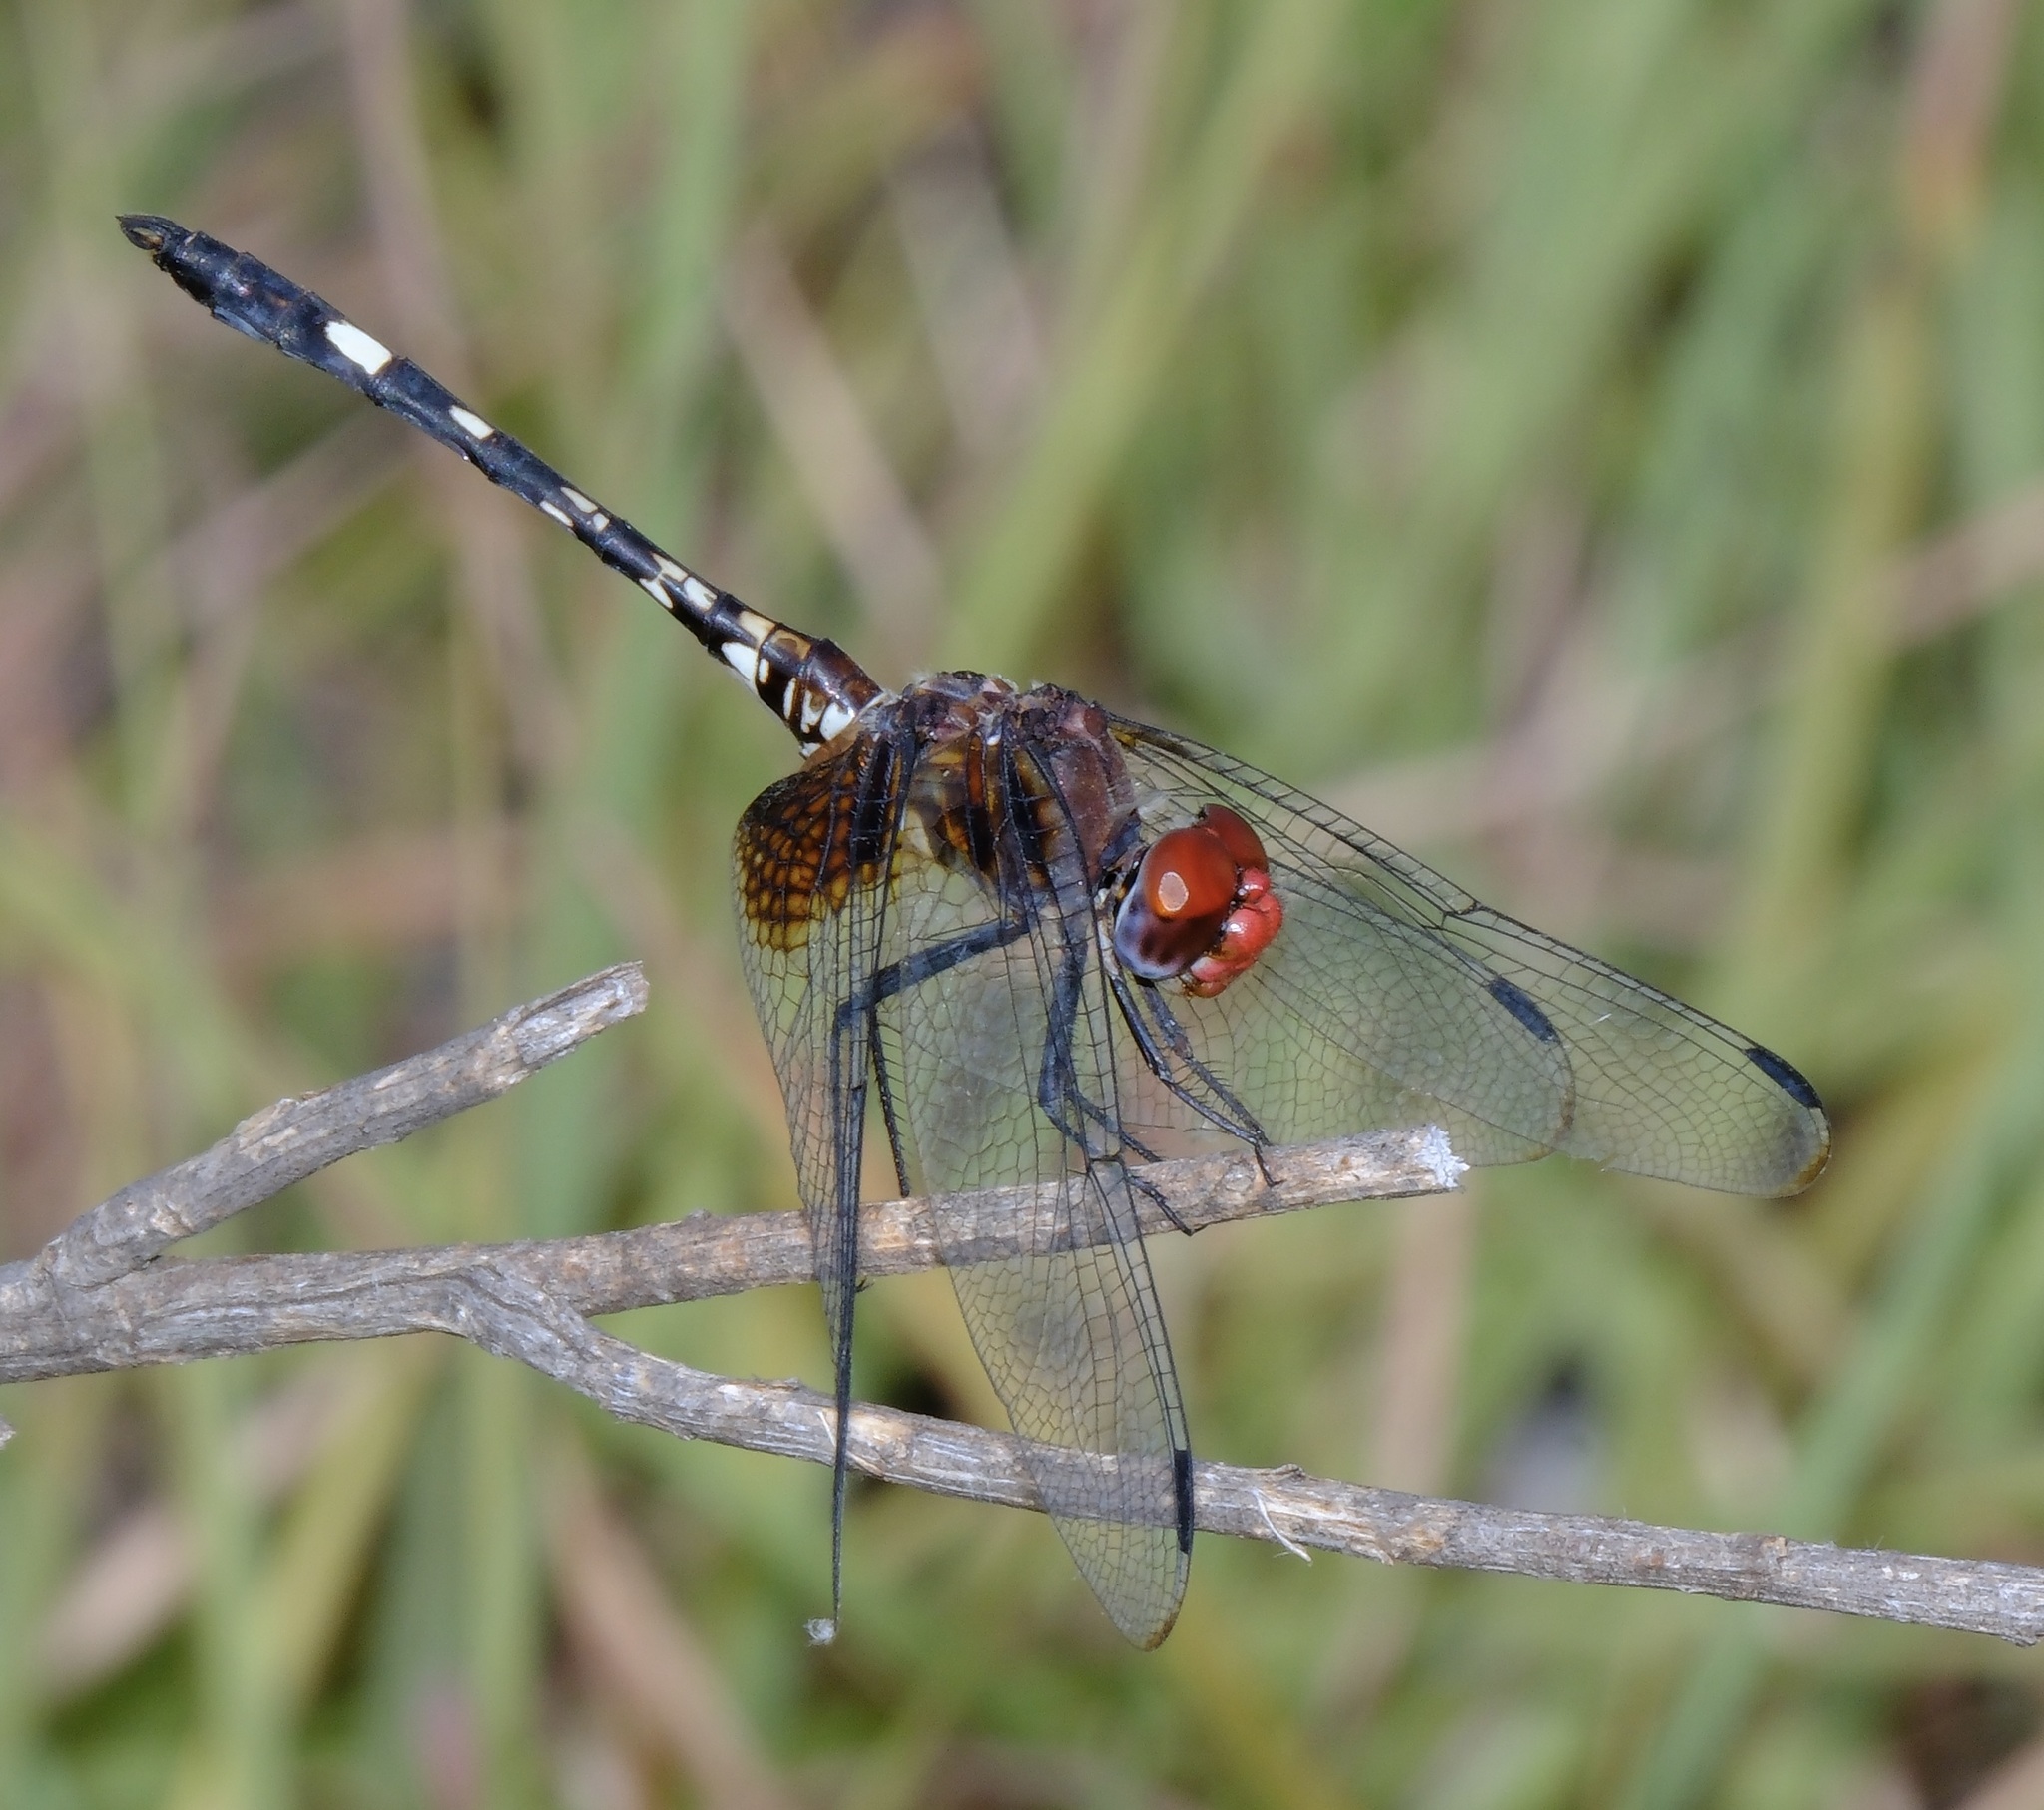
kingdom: Animalia
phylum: Arthropoda
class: Insecta
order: Odonata
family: Libellulidae
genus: Dythemis
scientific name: Dythemis fugax
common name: Checkered setwing
